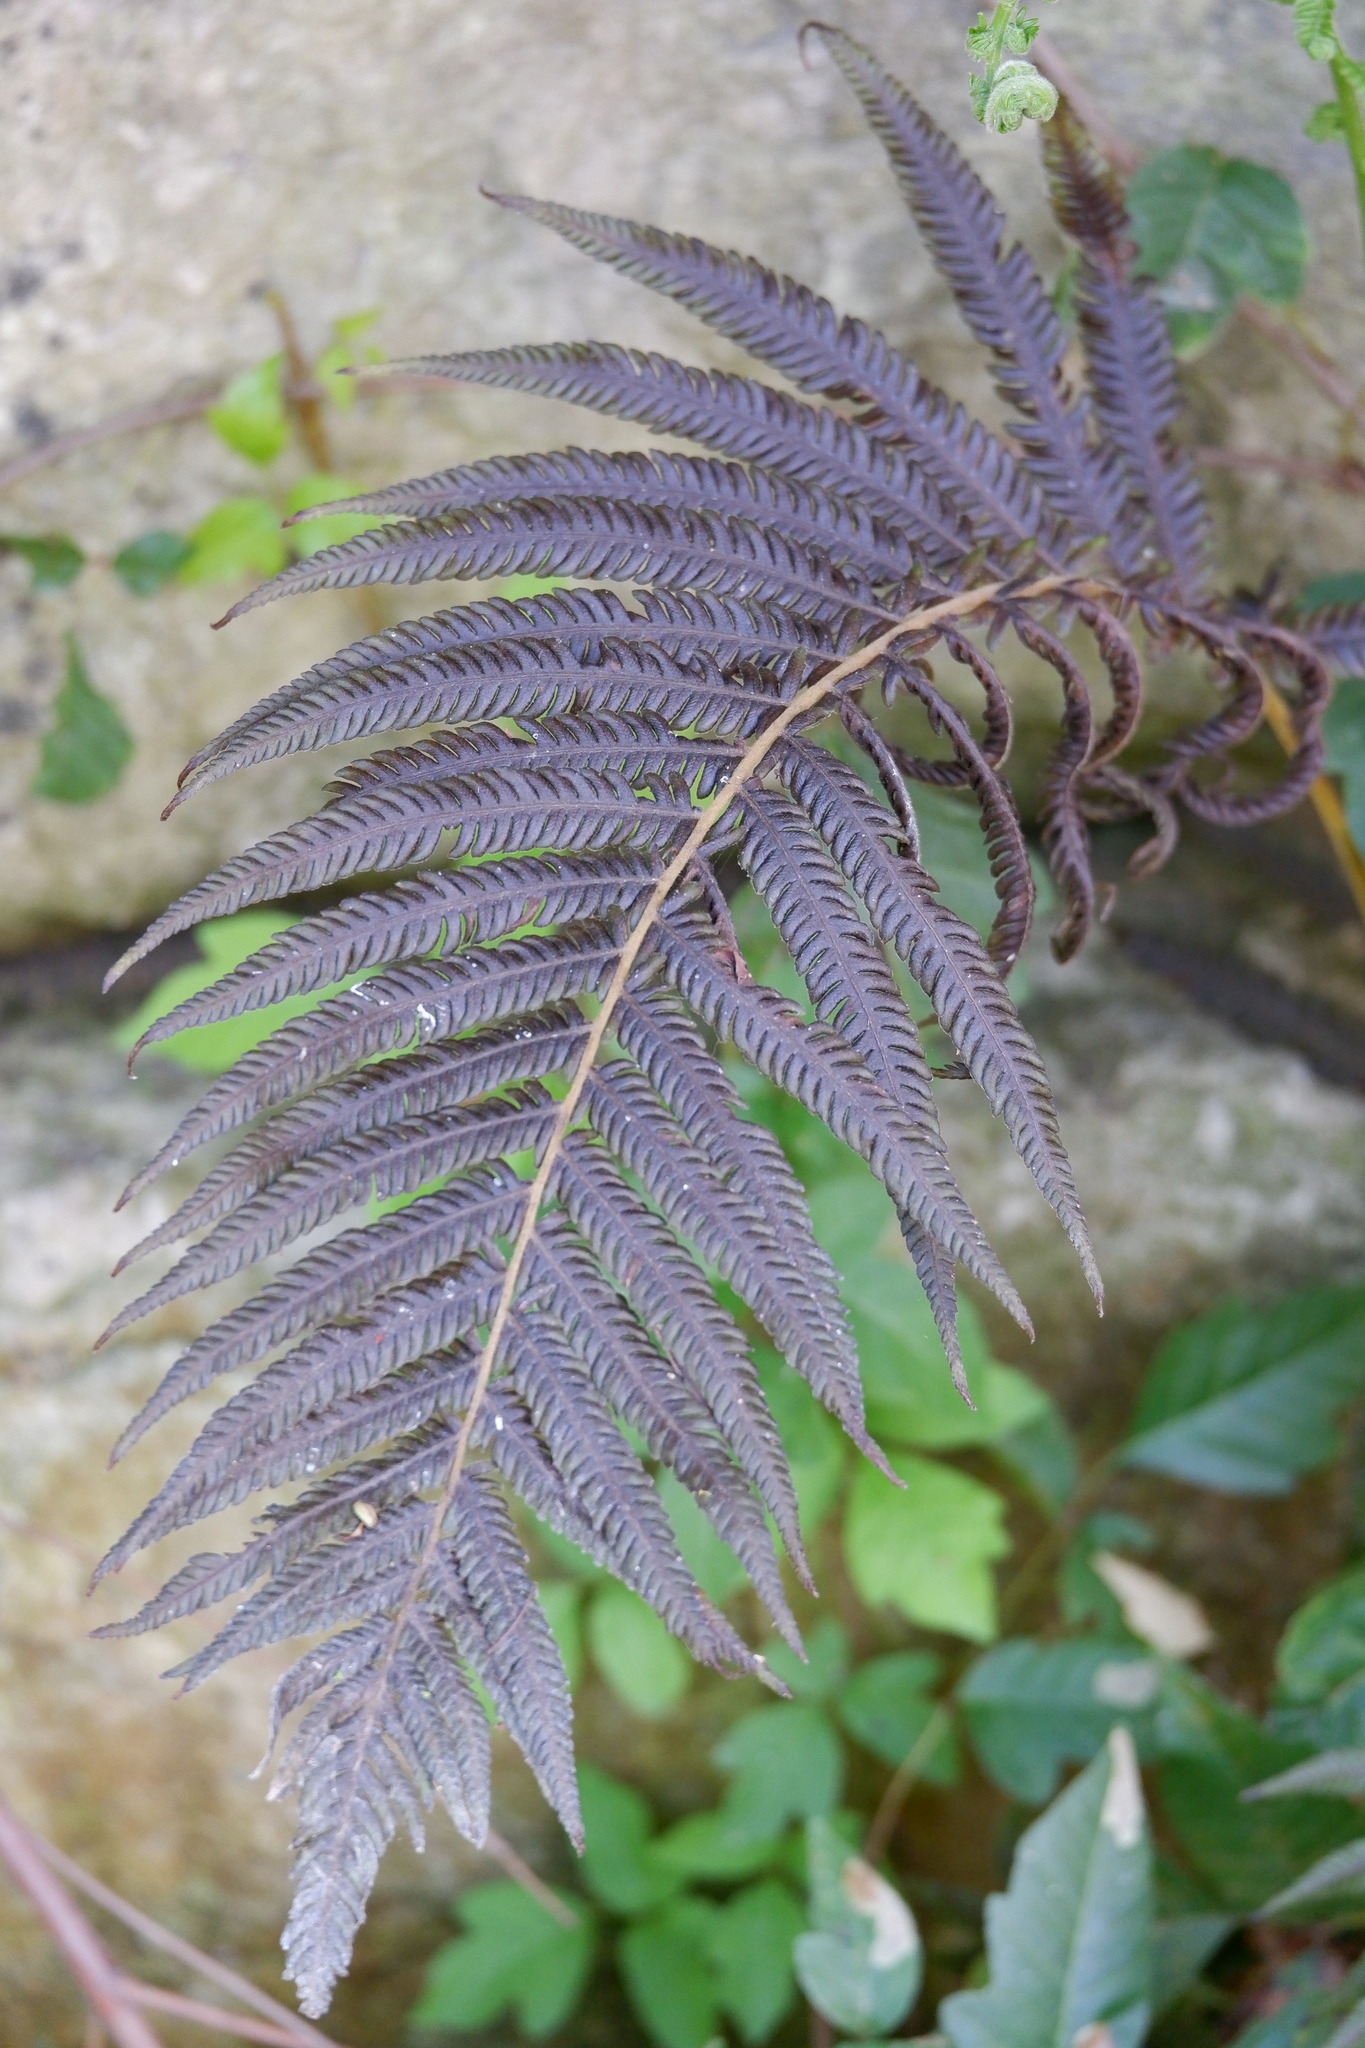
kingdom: Plantae
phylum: Tracheophyta
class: Polypodiopsida
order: Polypodiales
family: Thelypteridaceae
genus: Pelazoneuron
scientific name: Pelazoneuron ovatum
